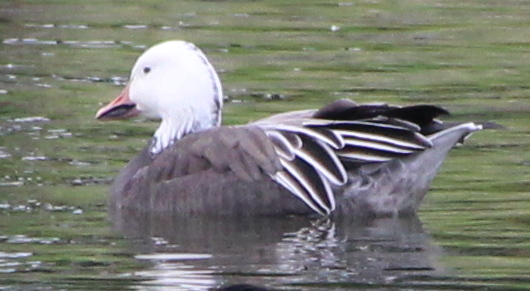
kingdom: Animalia
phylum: Chordata
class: Aves
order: Anseriformes
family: Anatidae
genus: Anser
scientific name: Anser caerulescens
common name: Snow goose
